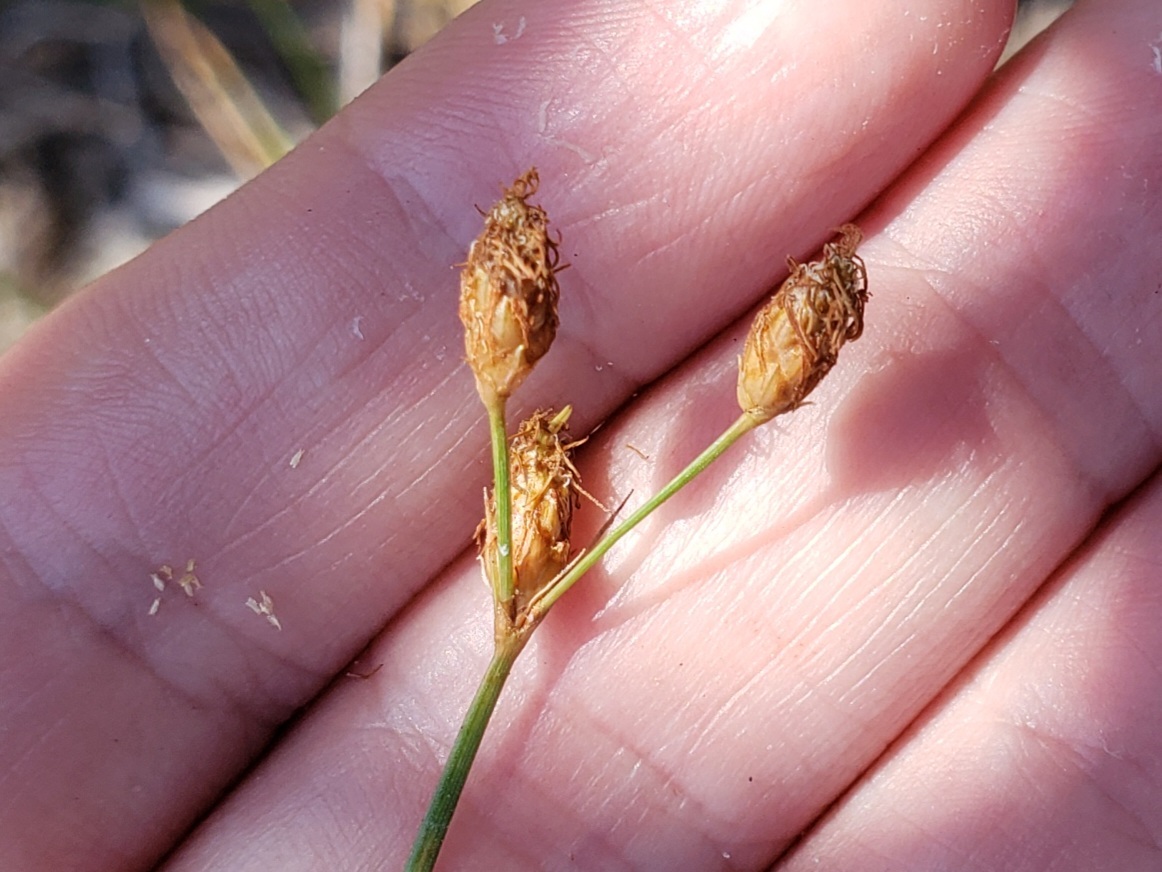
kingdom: Plantae
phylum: Tracheophyta
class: Liliopsida
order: Poales
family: Cyperaceae
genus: Fimbristylis
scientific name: Fimbristylis puberula
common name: Hairy fimbristylis
